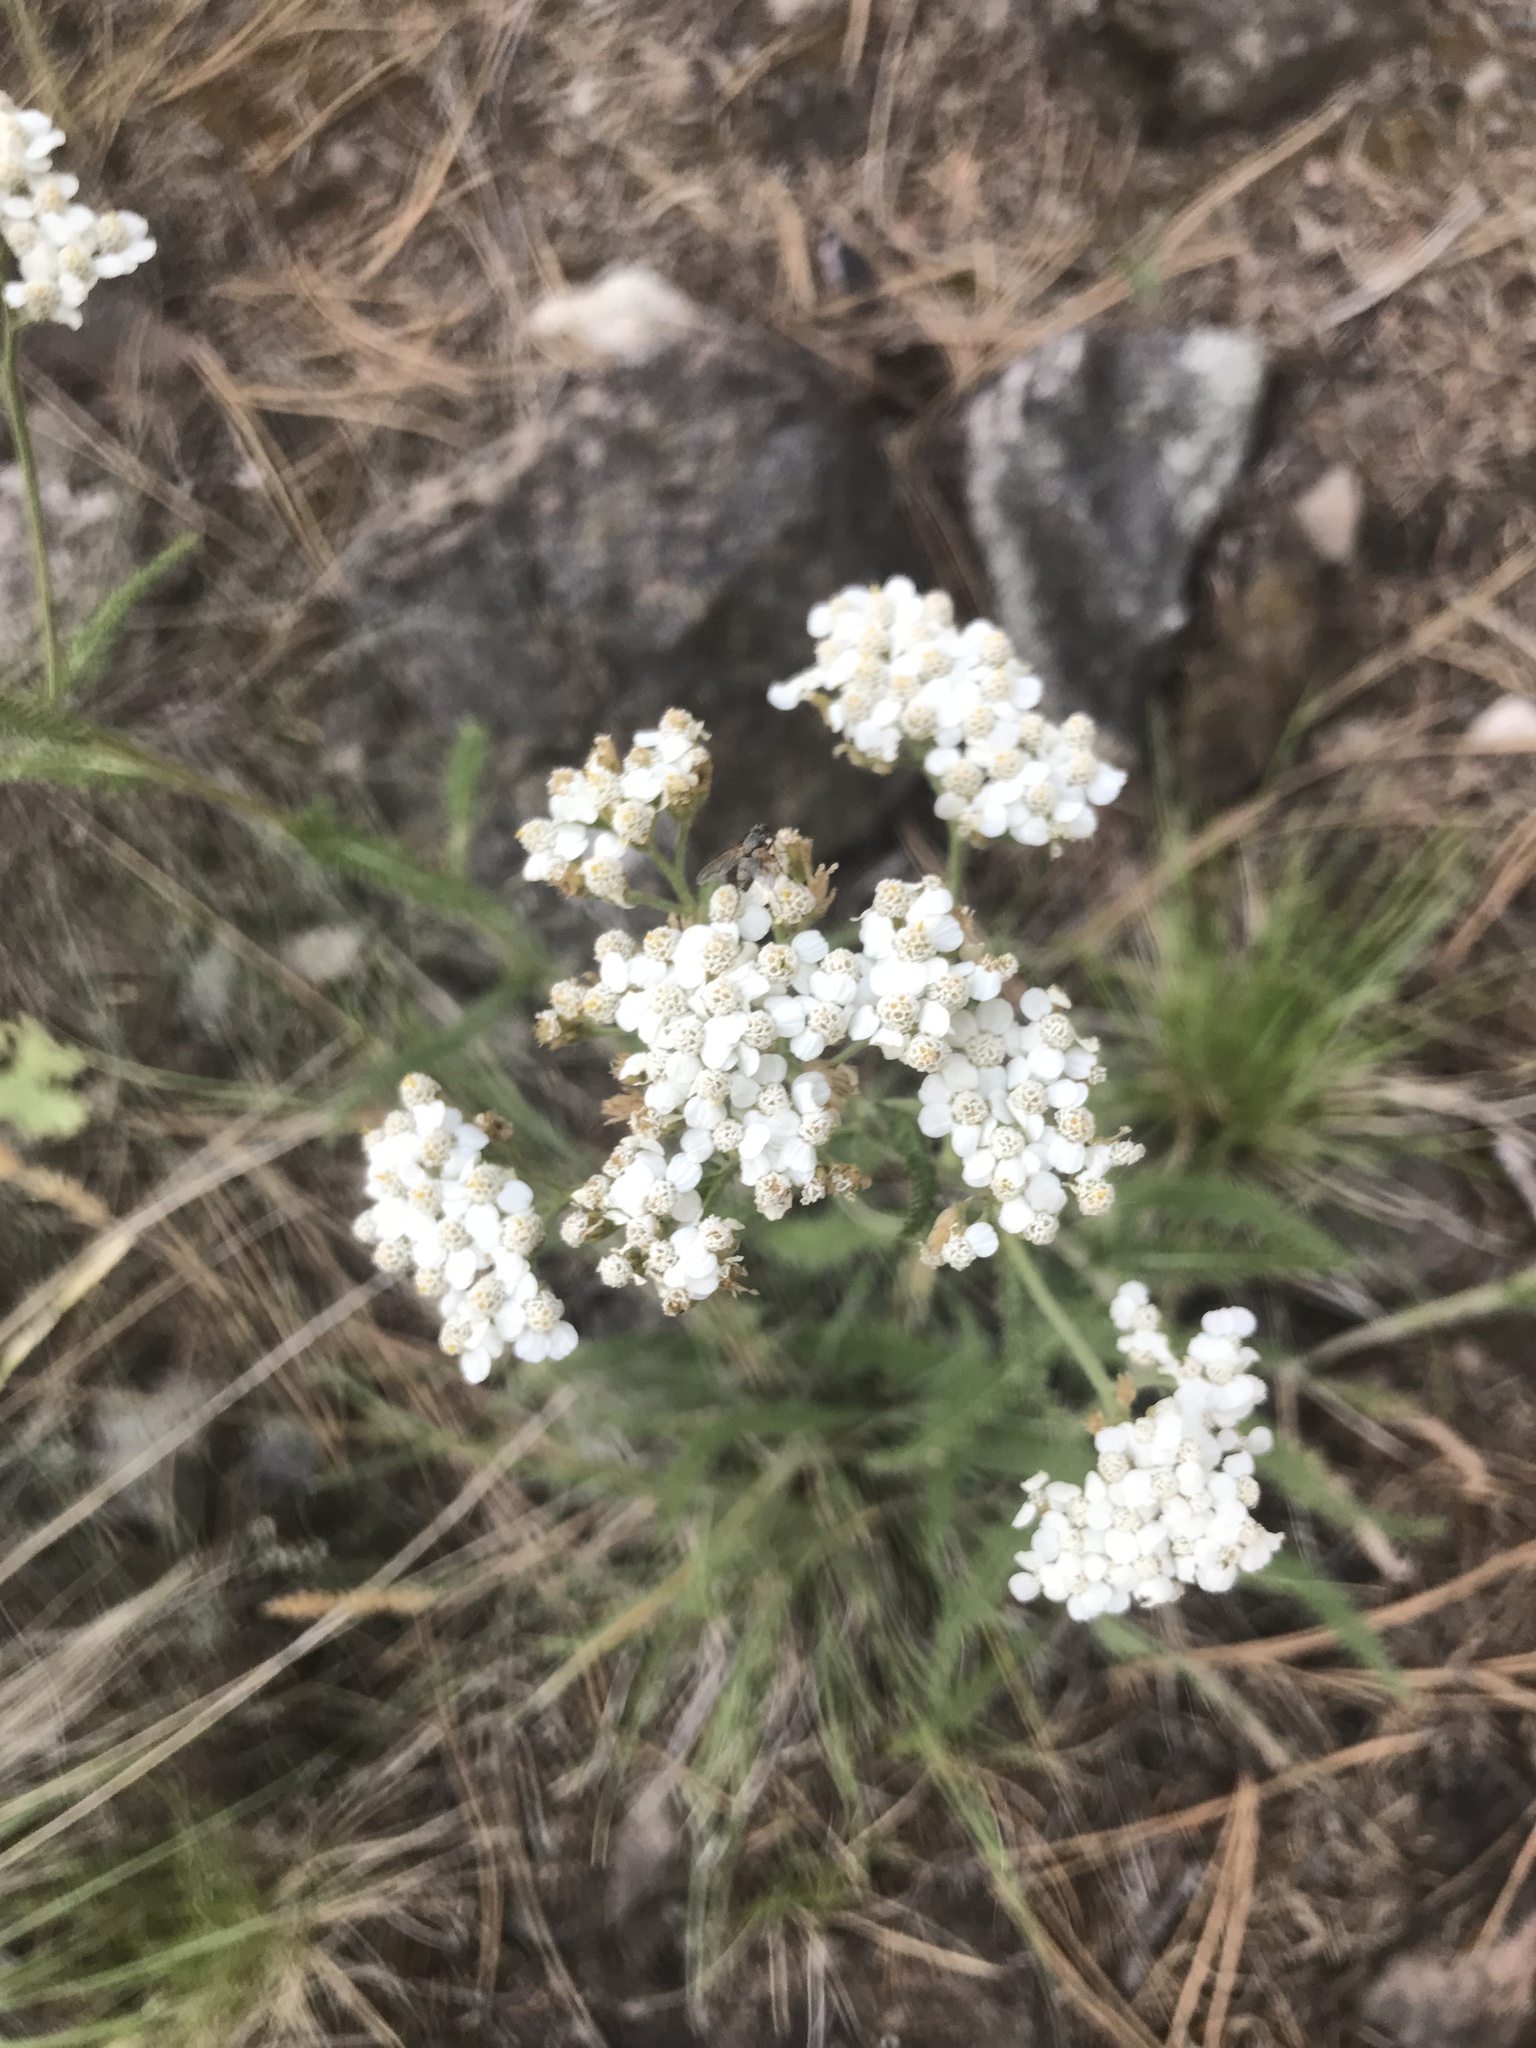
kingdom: Plantae
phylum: Tracheophyta
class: Magnoliopsida
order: Asterales
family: Asteraceae
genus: Achillea
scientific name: Achillea millefolium
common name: Yarrow
